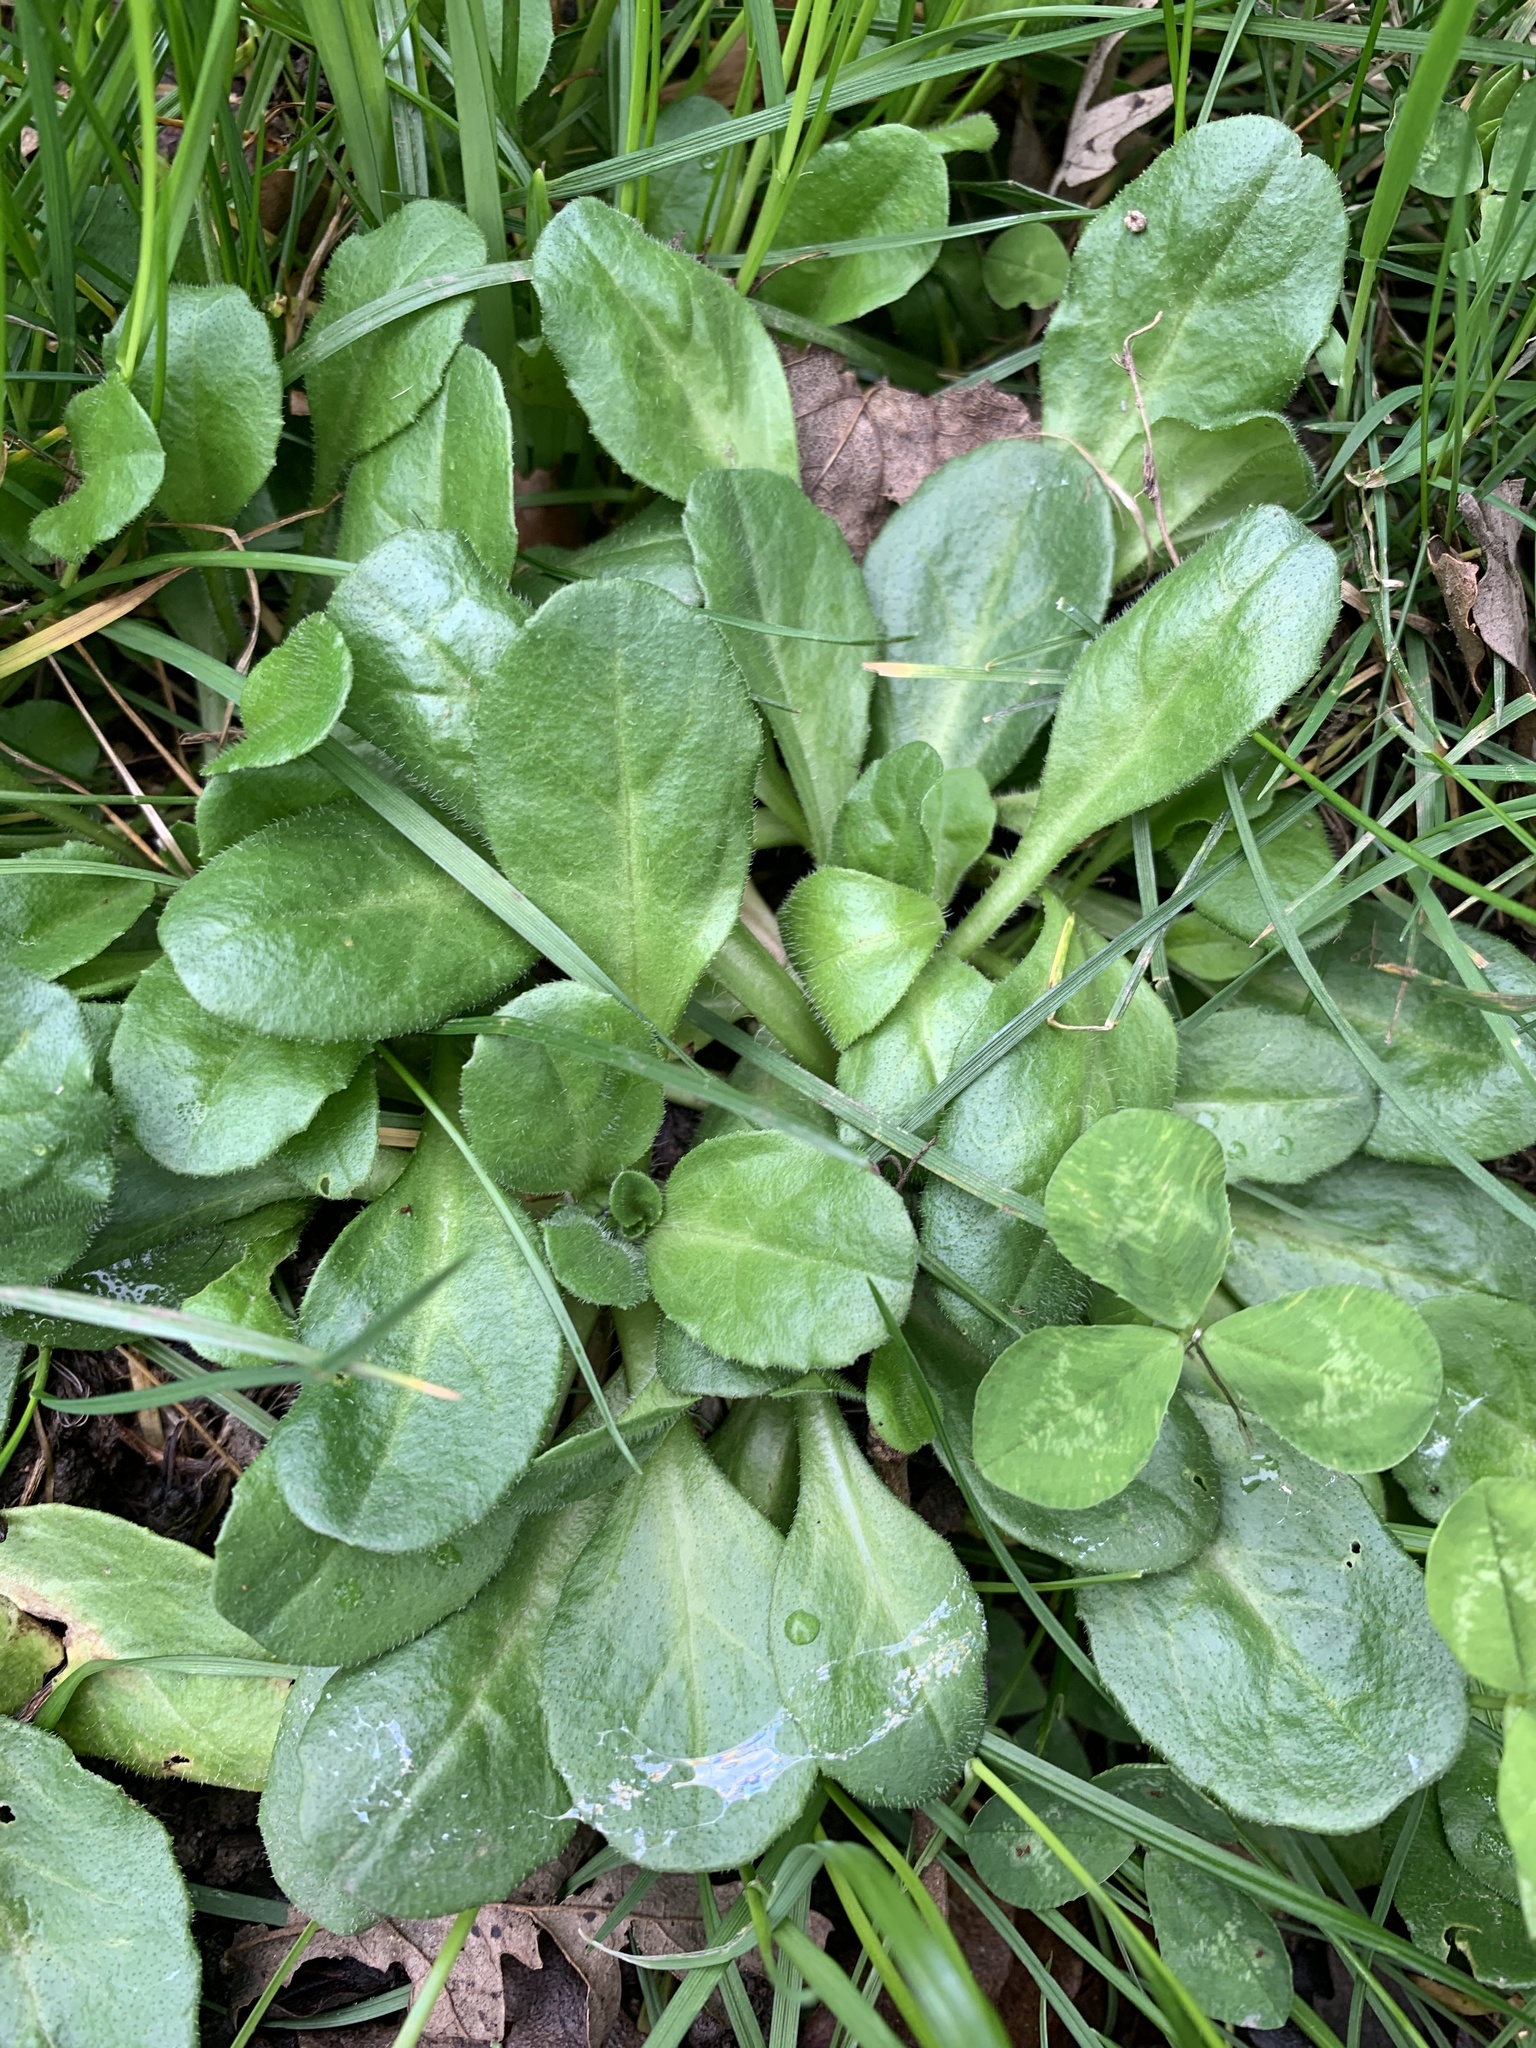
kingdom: Plantae
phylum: Tracheophyta
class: Magnoliopsida
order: Asterales
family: Asteraceae
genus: Bellis
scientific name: Bellis perennis
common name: Lawndaisy
